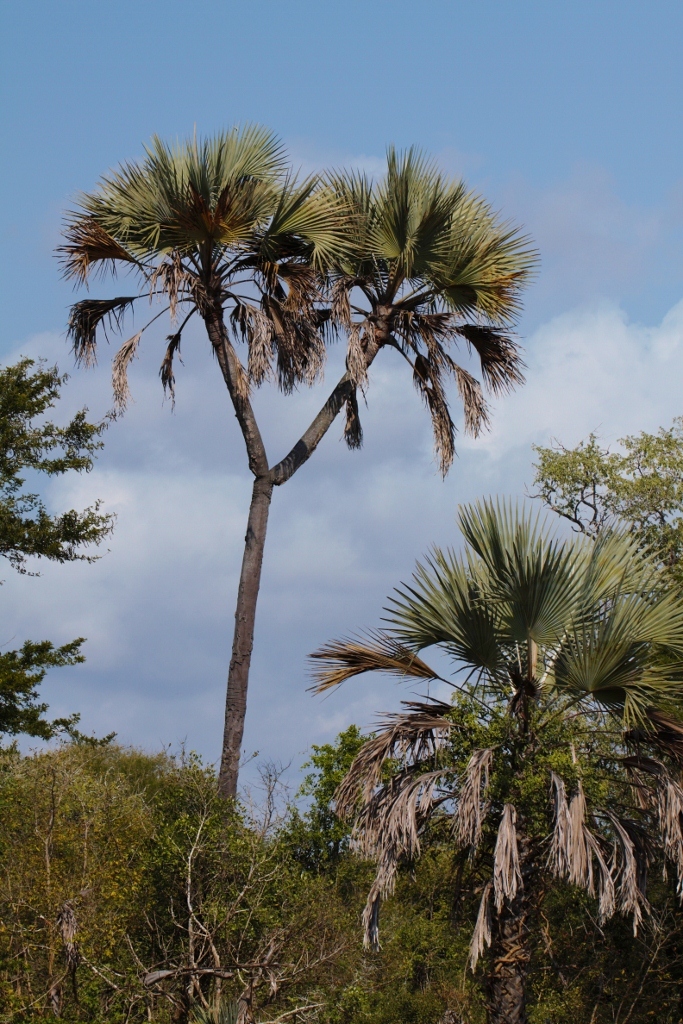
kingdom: Plantae
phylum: Tracheophyta
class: Liliopsida
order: Arecales
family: Arecaceae
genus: Hyphaene
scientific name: Hyphaene coriacea
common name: Ilala palm
